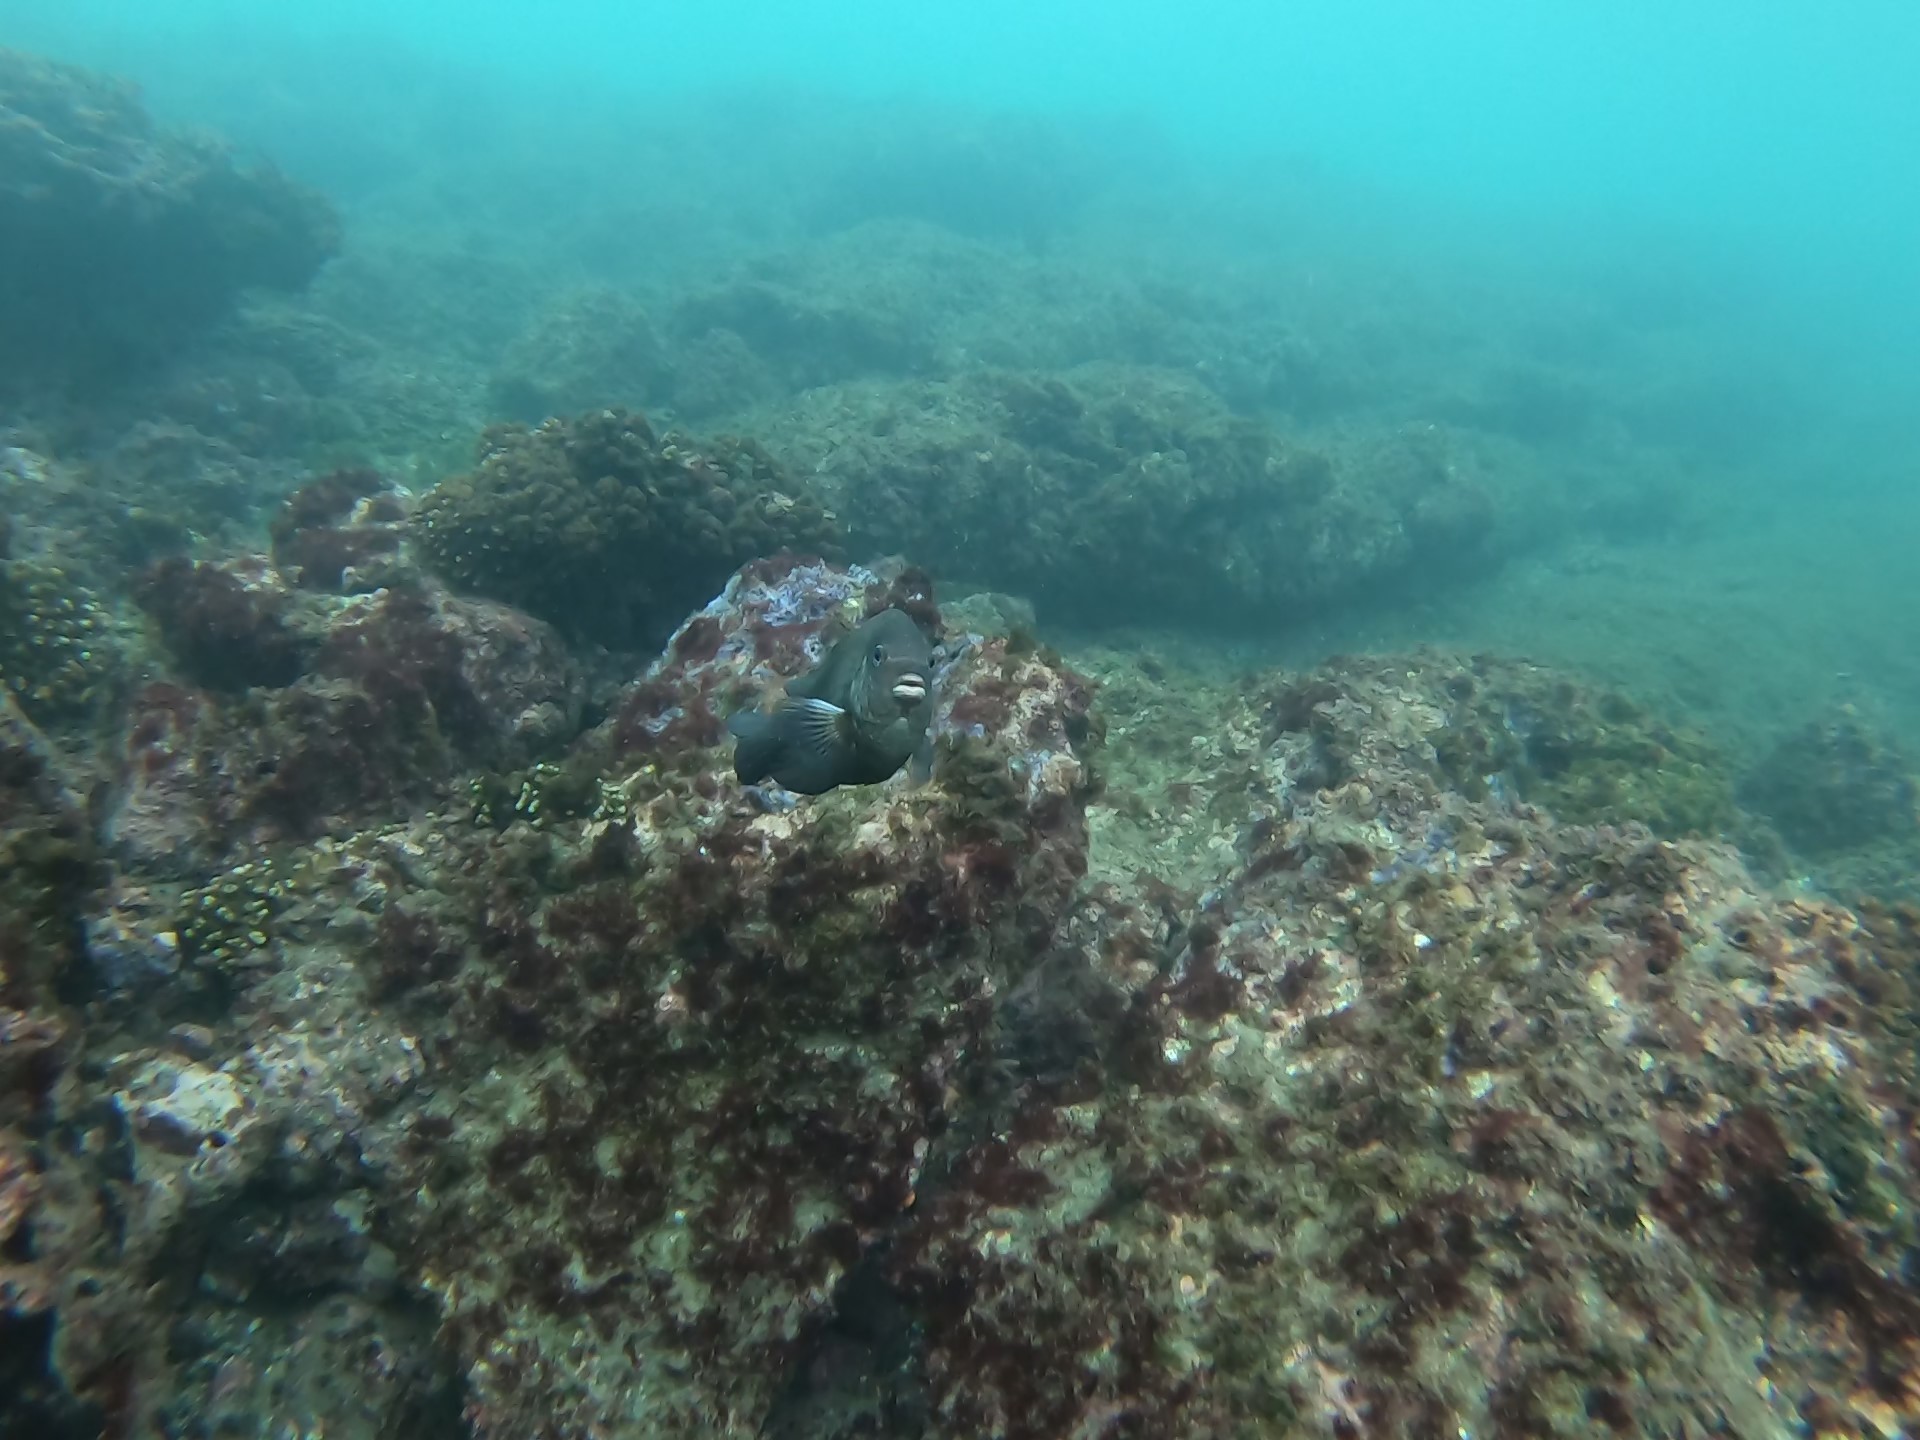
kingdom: Animalia
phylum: Chordata
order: Perciformes
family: Pomacentridae
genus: Stegastes
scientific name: Stegastes acapulcoensis
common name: Acapulco damselfish
